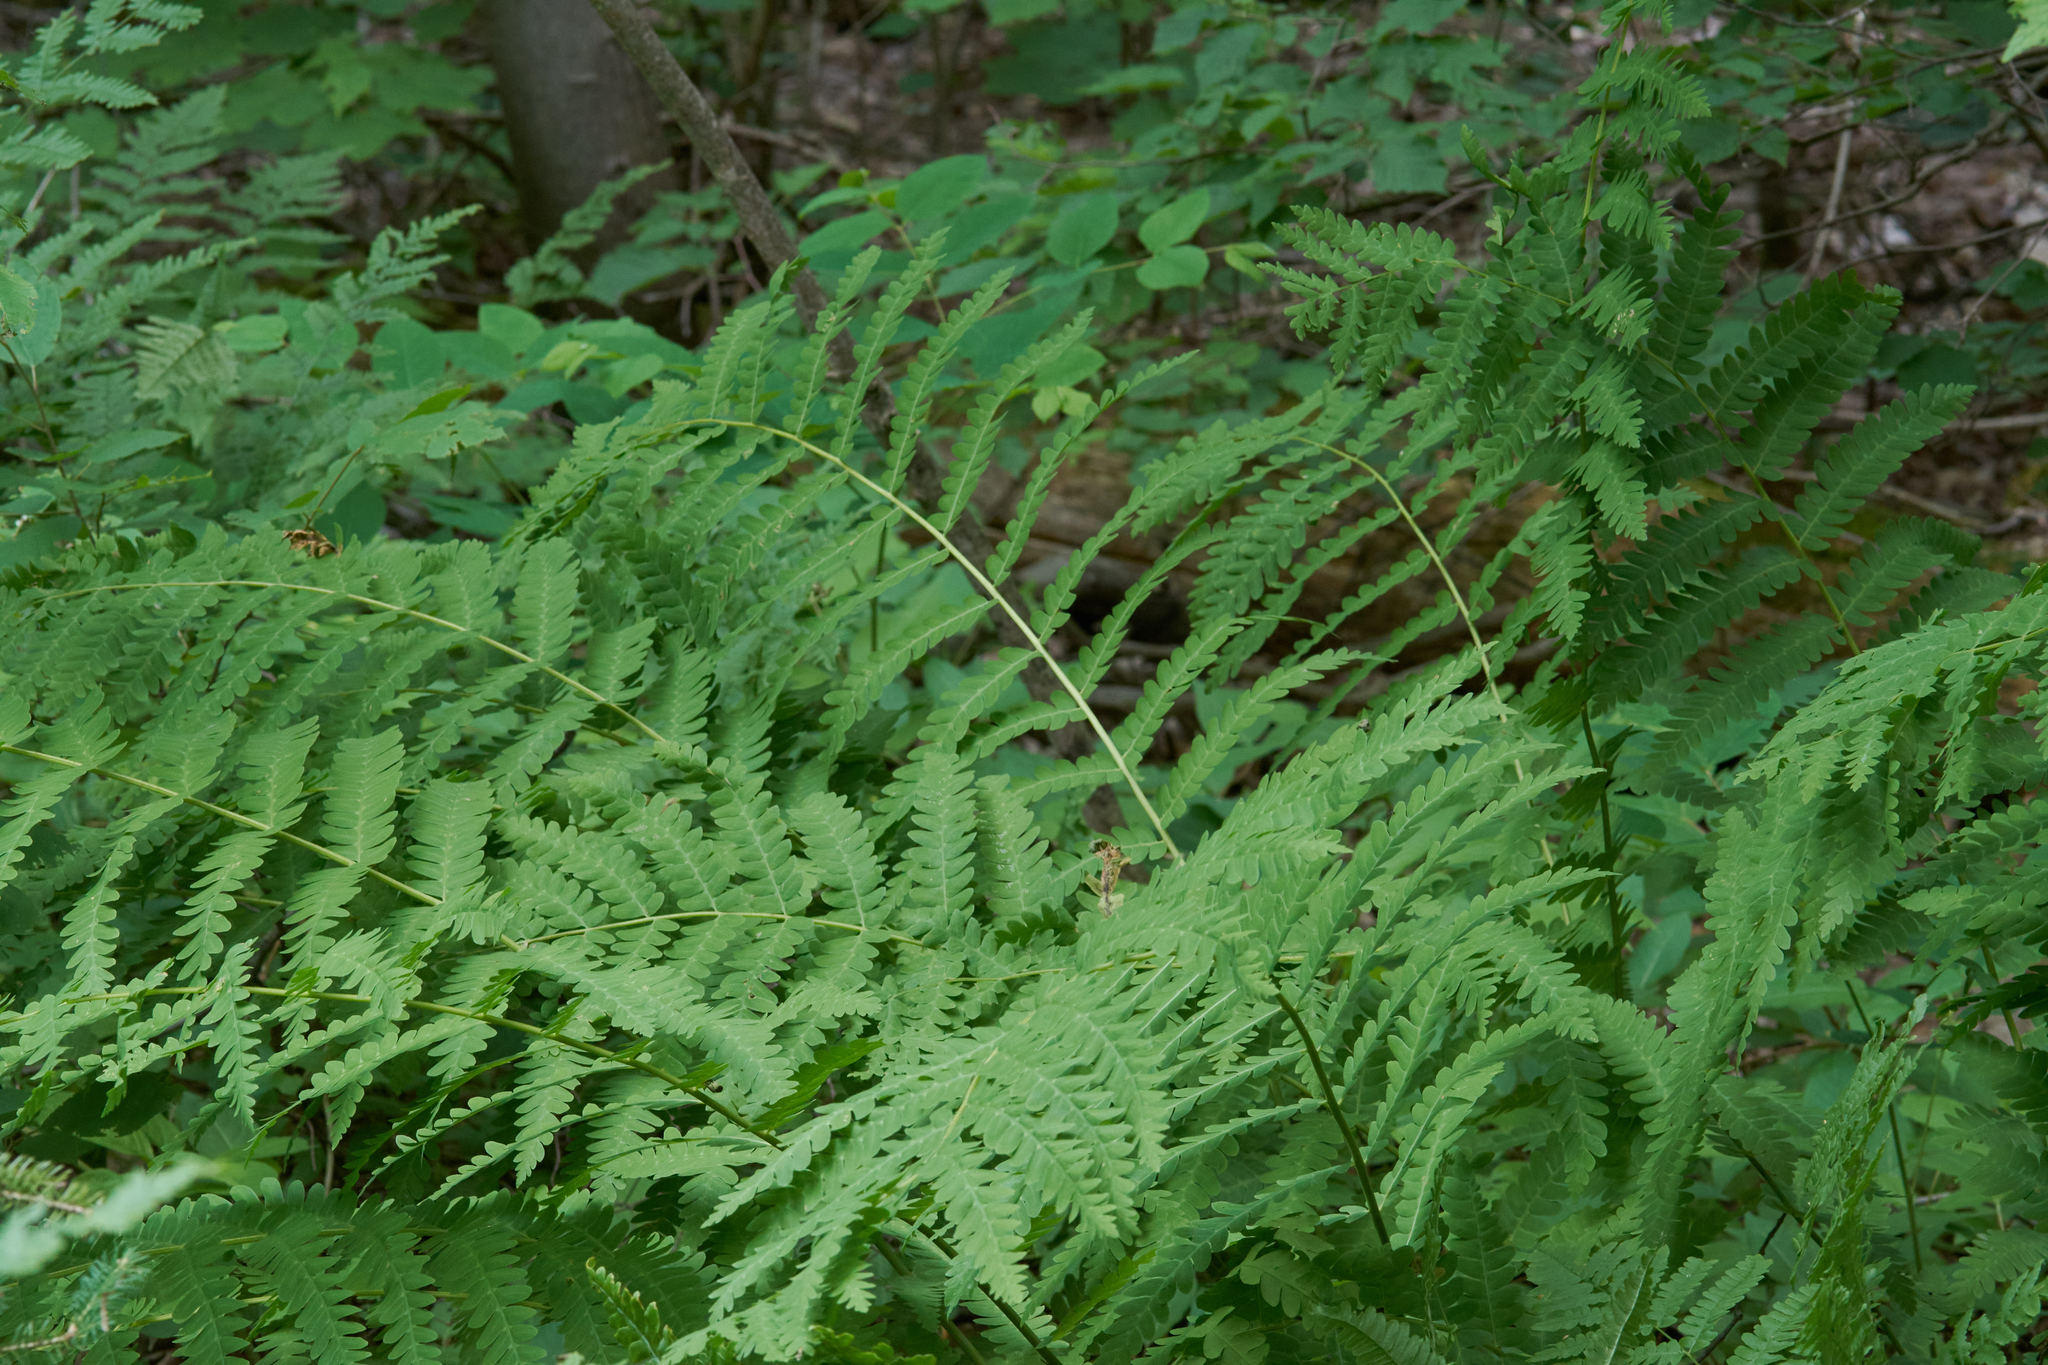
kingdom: Plantae
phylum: Tracheophyta
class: Polypodiopsida
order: Osmundales
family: Osmundaceae
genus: Claytosmunda
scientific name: Claytosmunda claytoniana
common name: Clayton's fern
